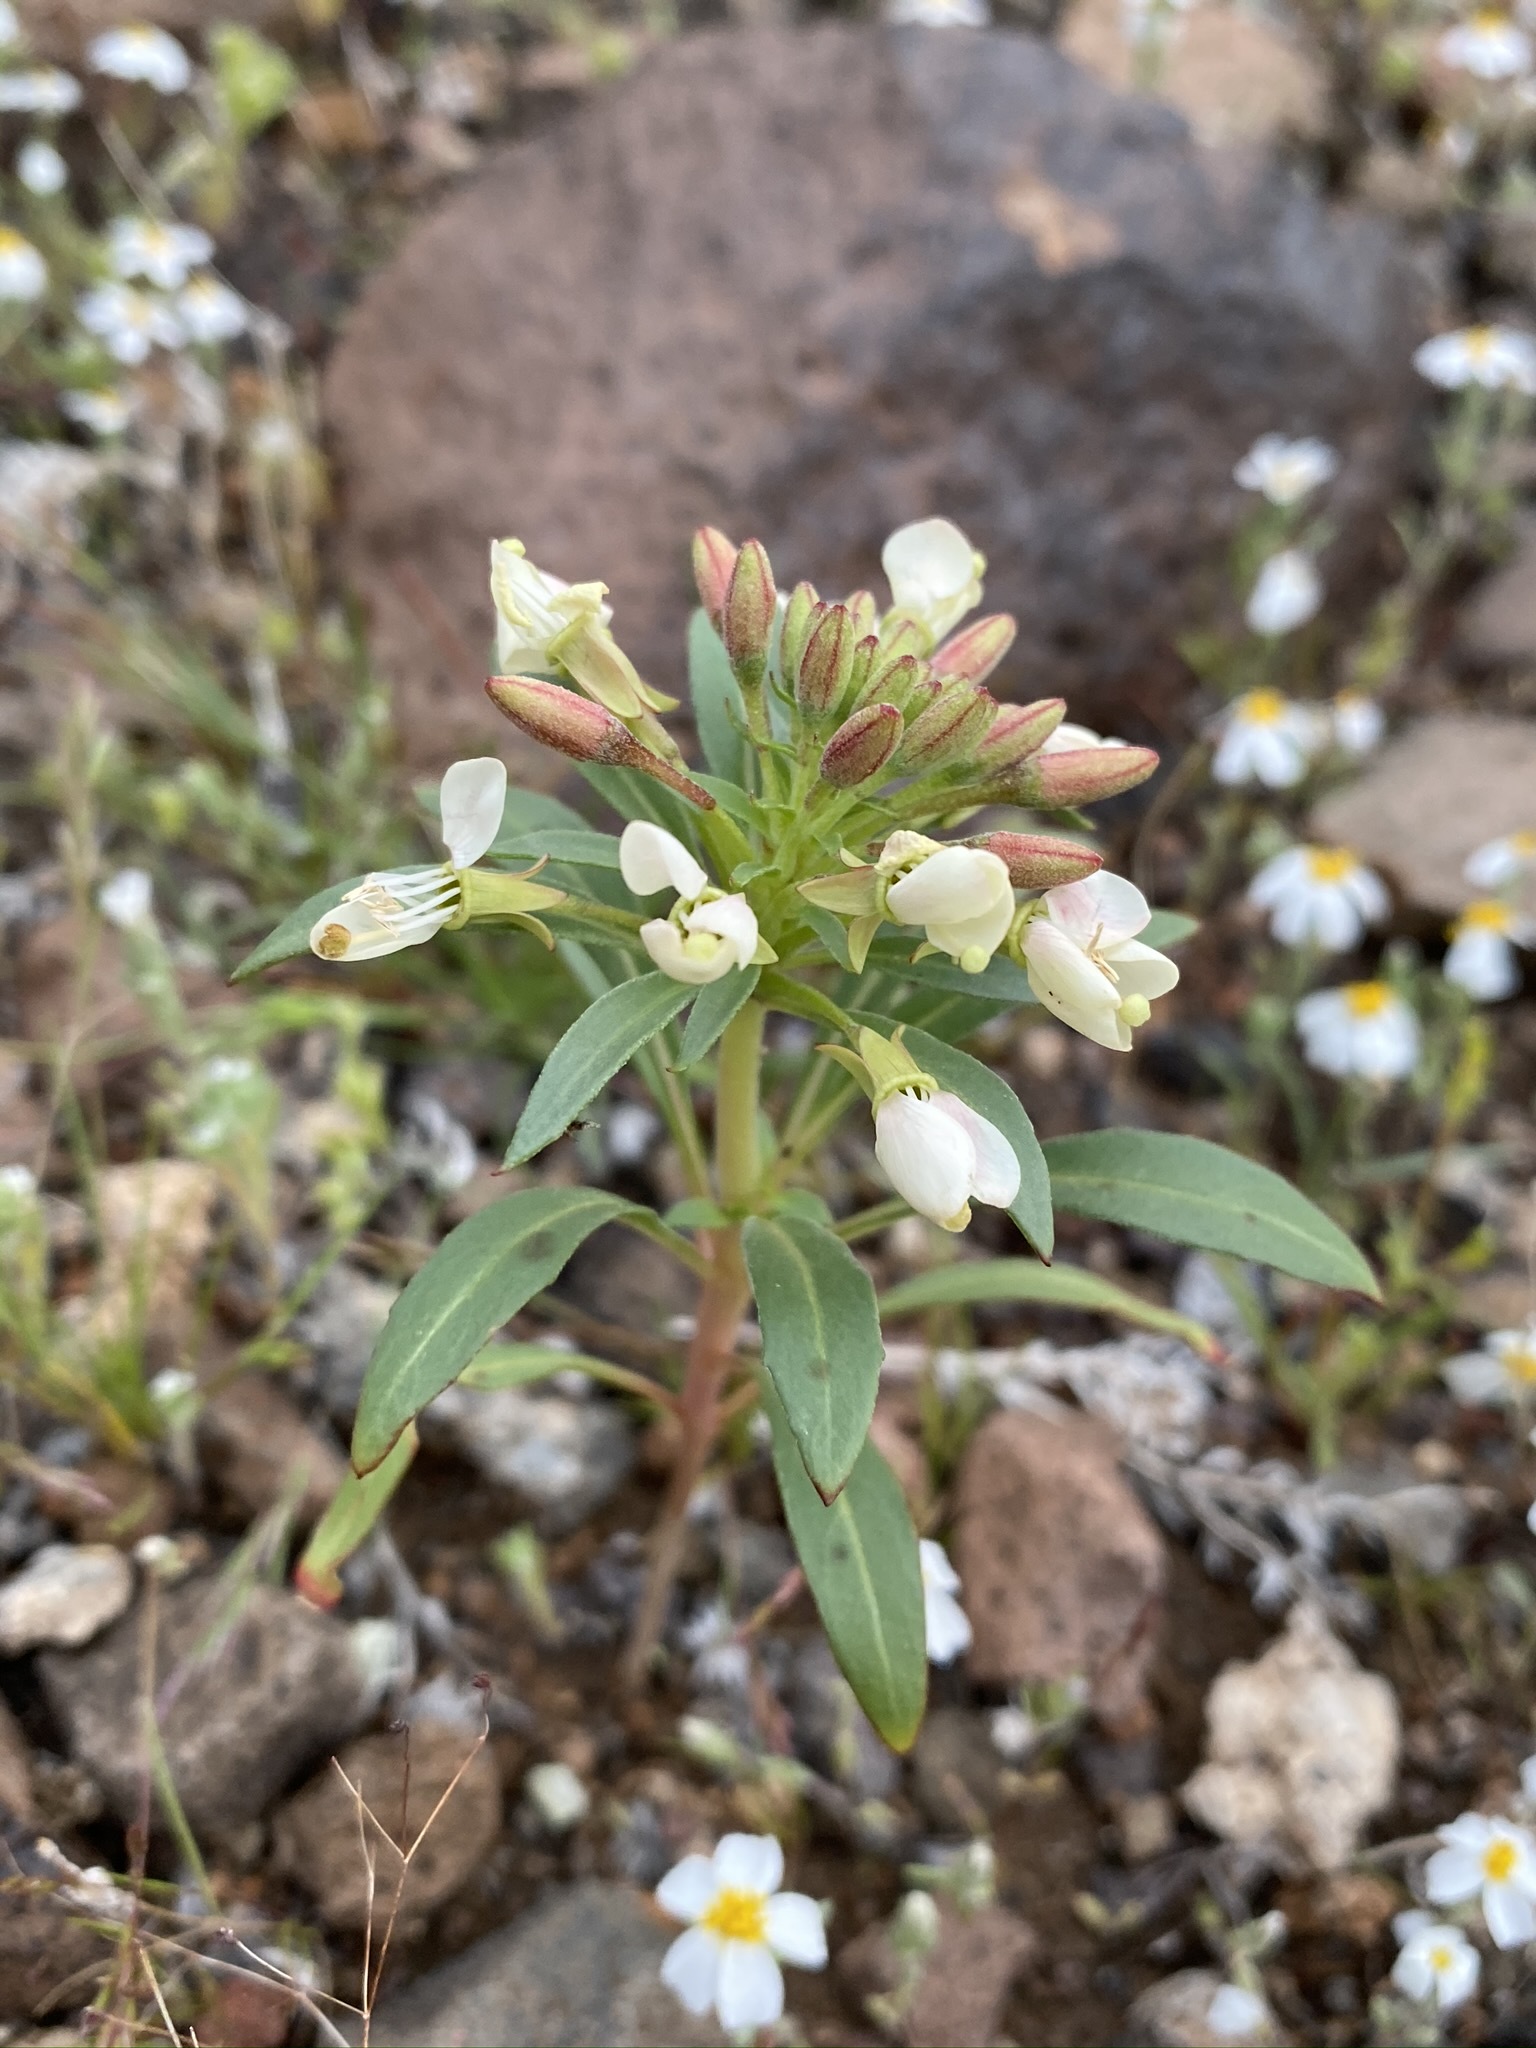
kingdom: Plantae
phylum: Tracheophyta
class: Magnoliopsida
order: Myrtales
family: Onagraceae
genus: Eremothera
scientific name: Eremothera boothii
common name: Booth's evening primrose
